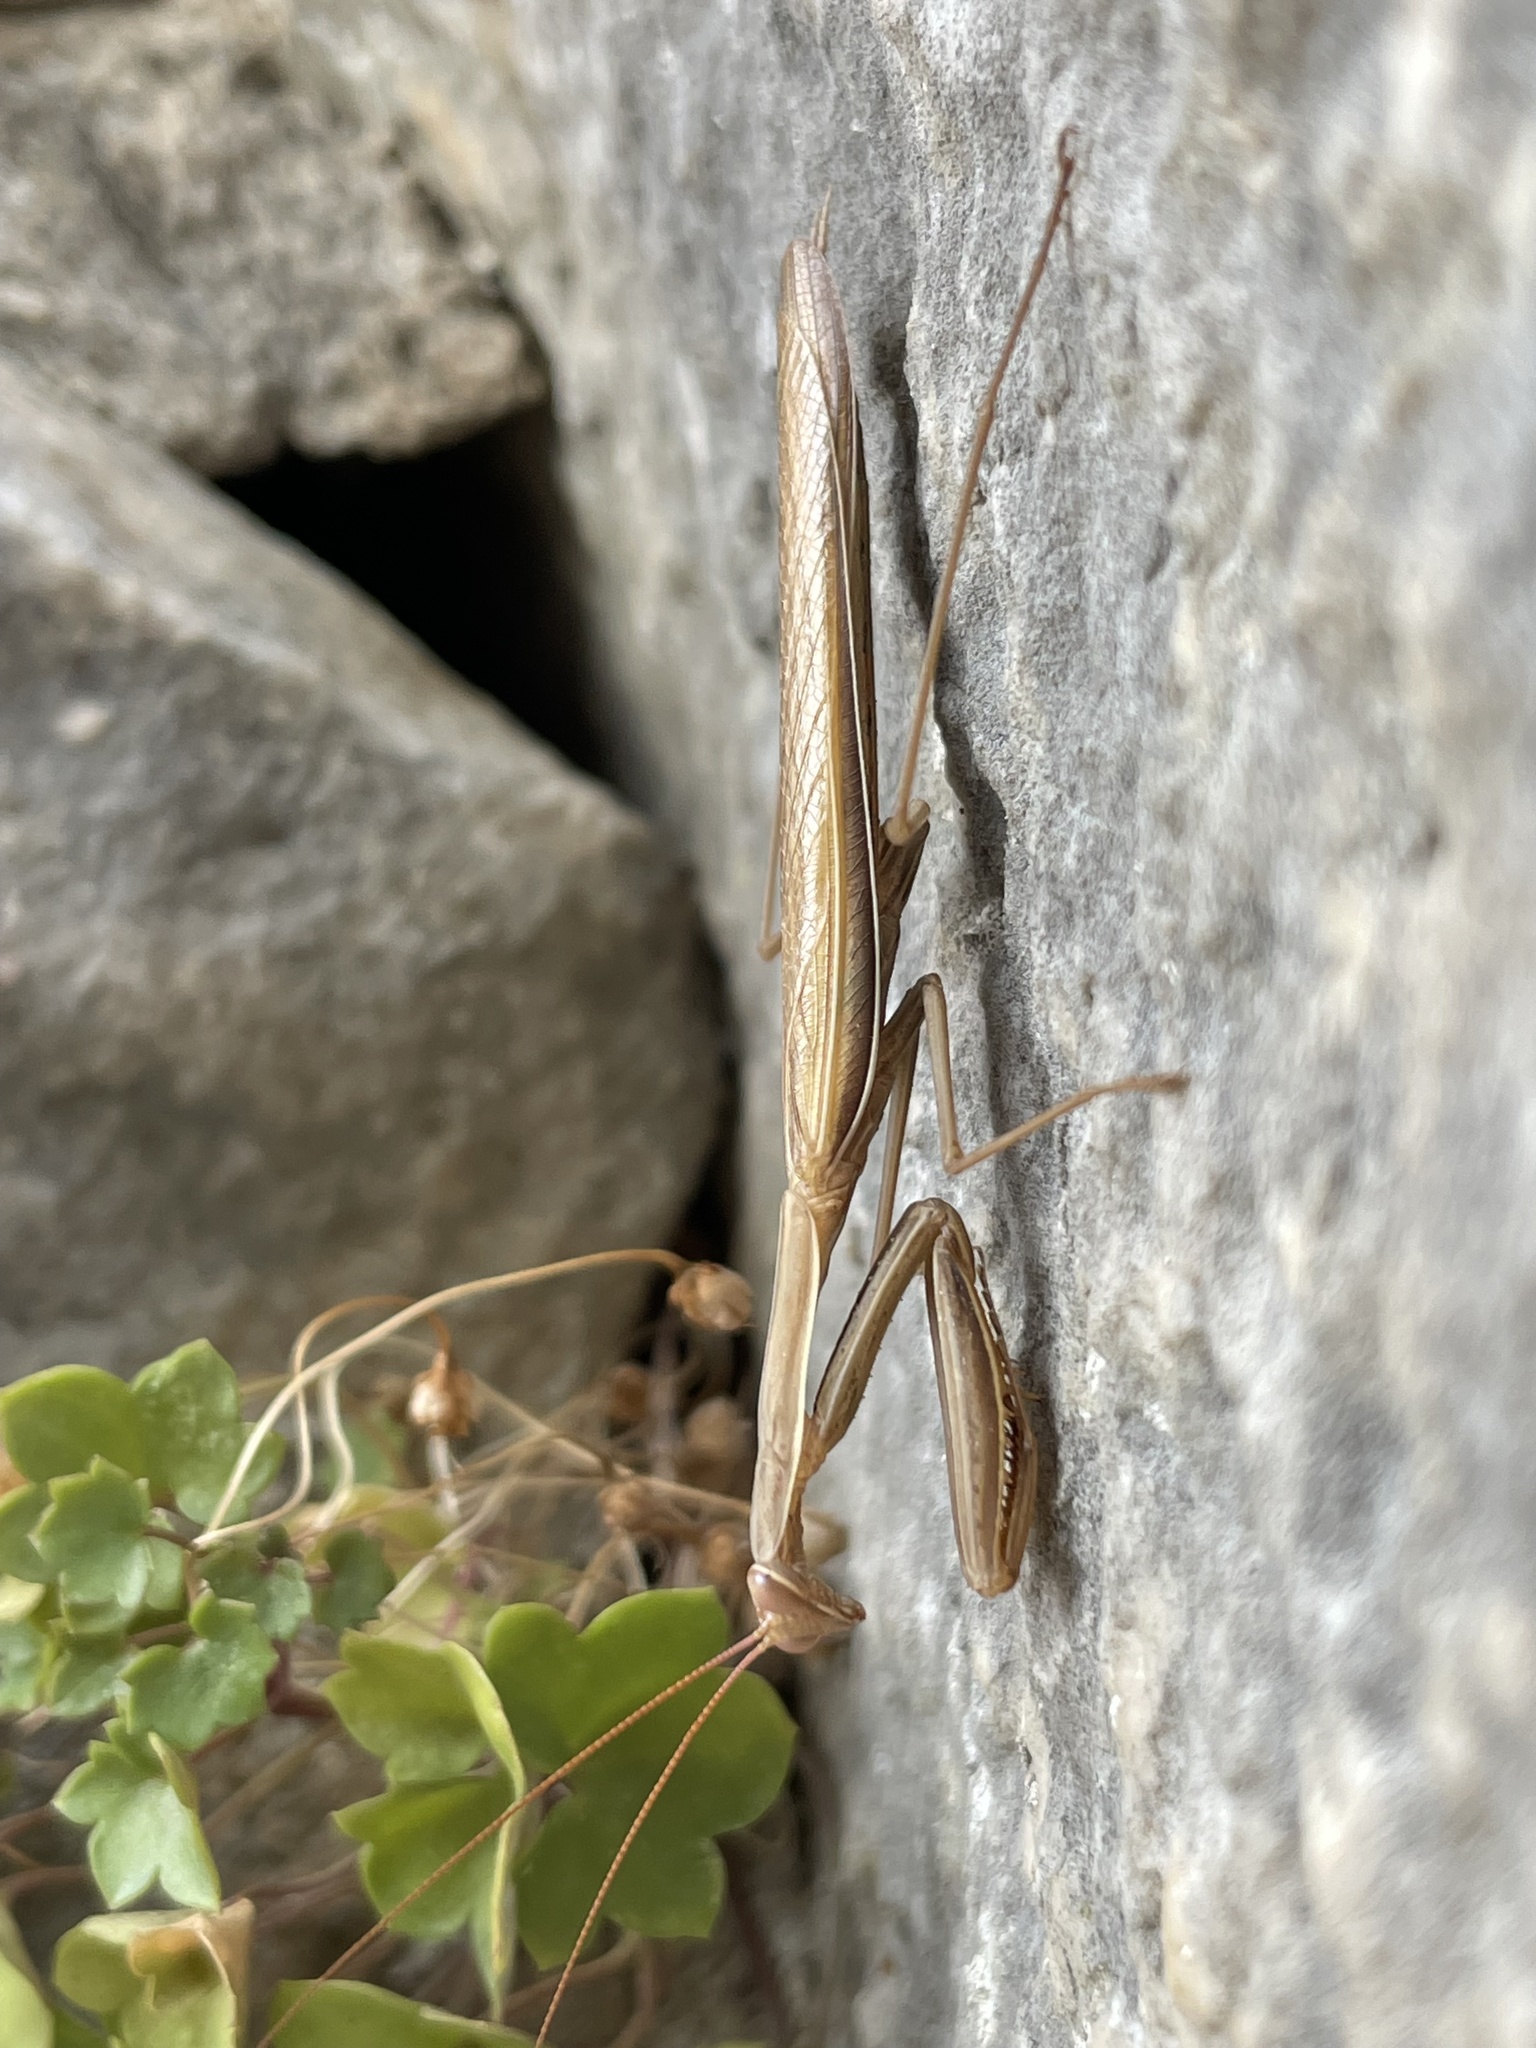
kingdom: Animalia
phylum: Arthropoda
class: Insecta
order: Mantodea
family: Mantidae
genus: Mantis
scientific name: Mantis religiosa
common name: Praying mantis
